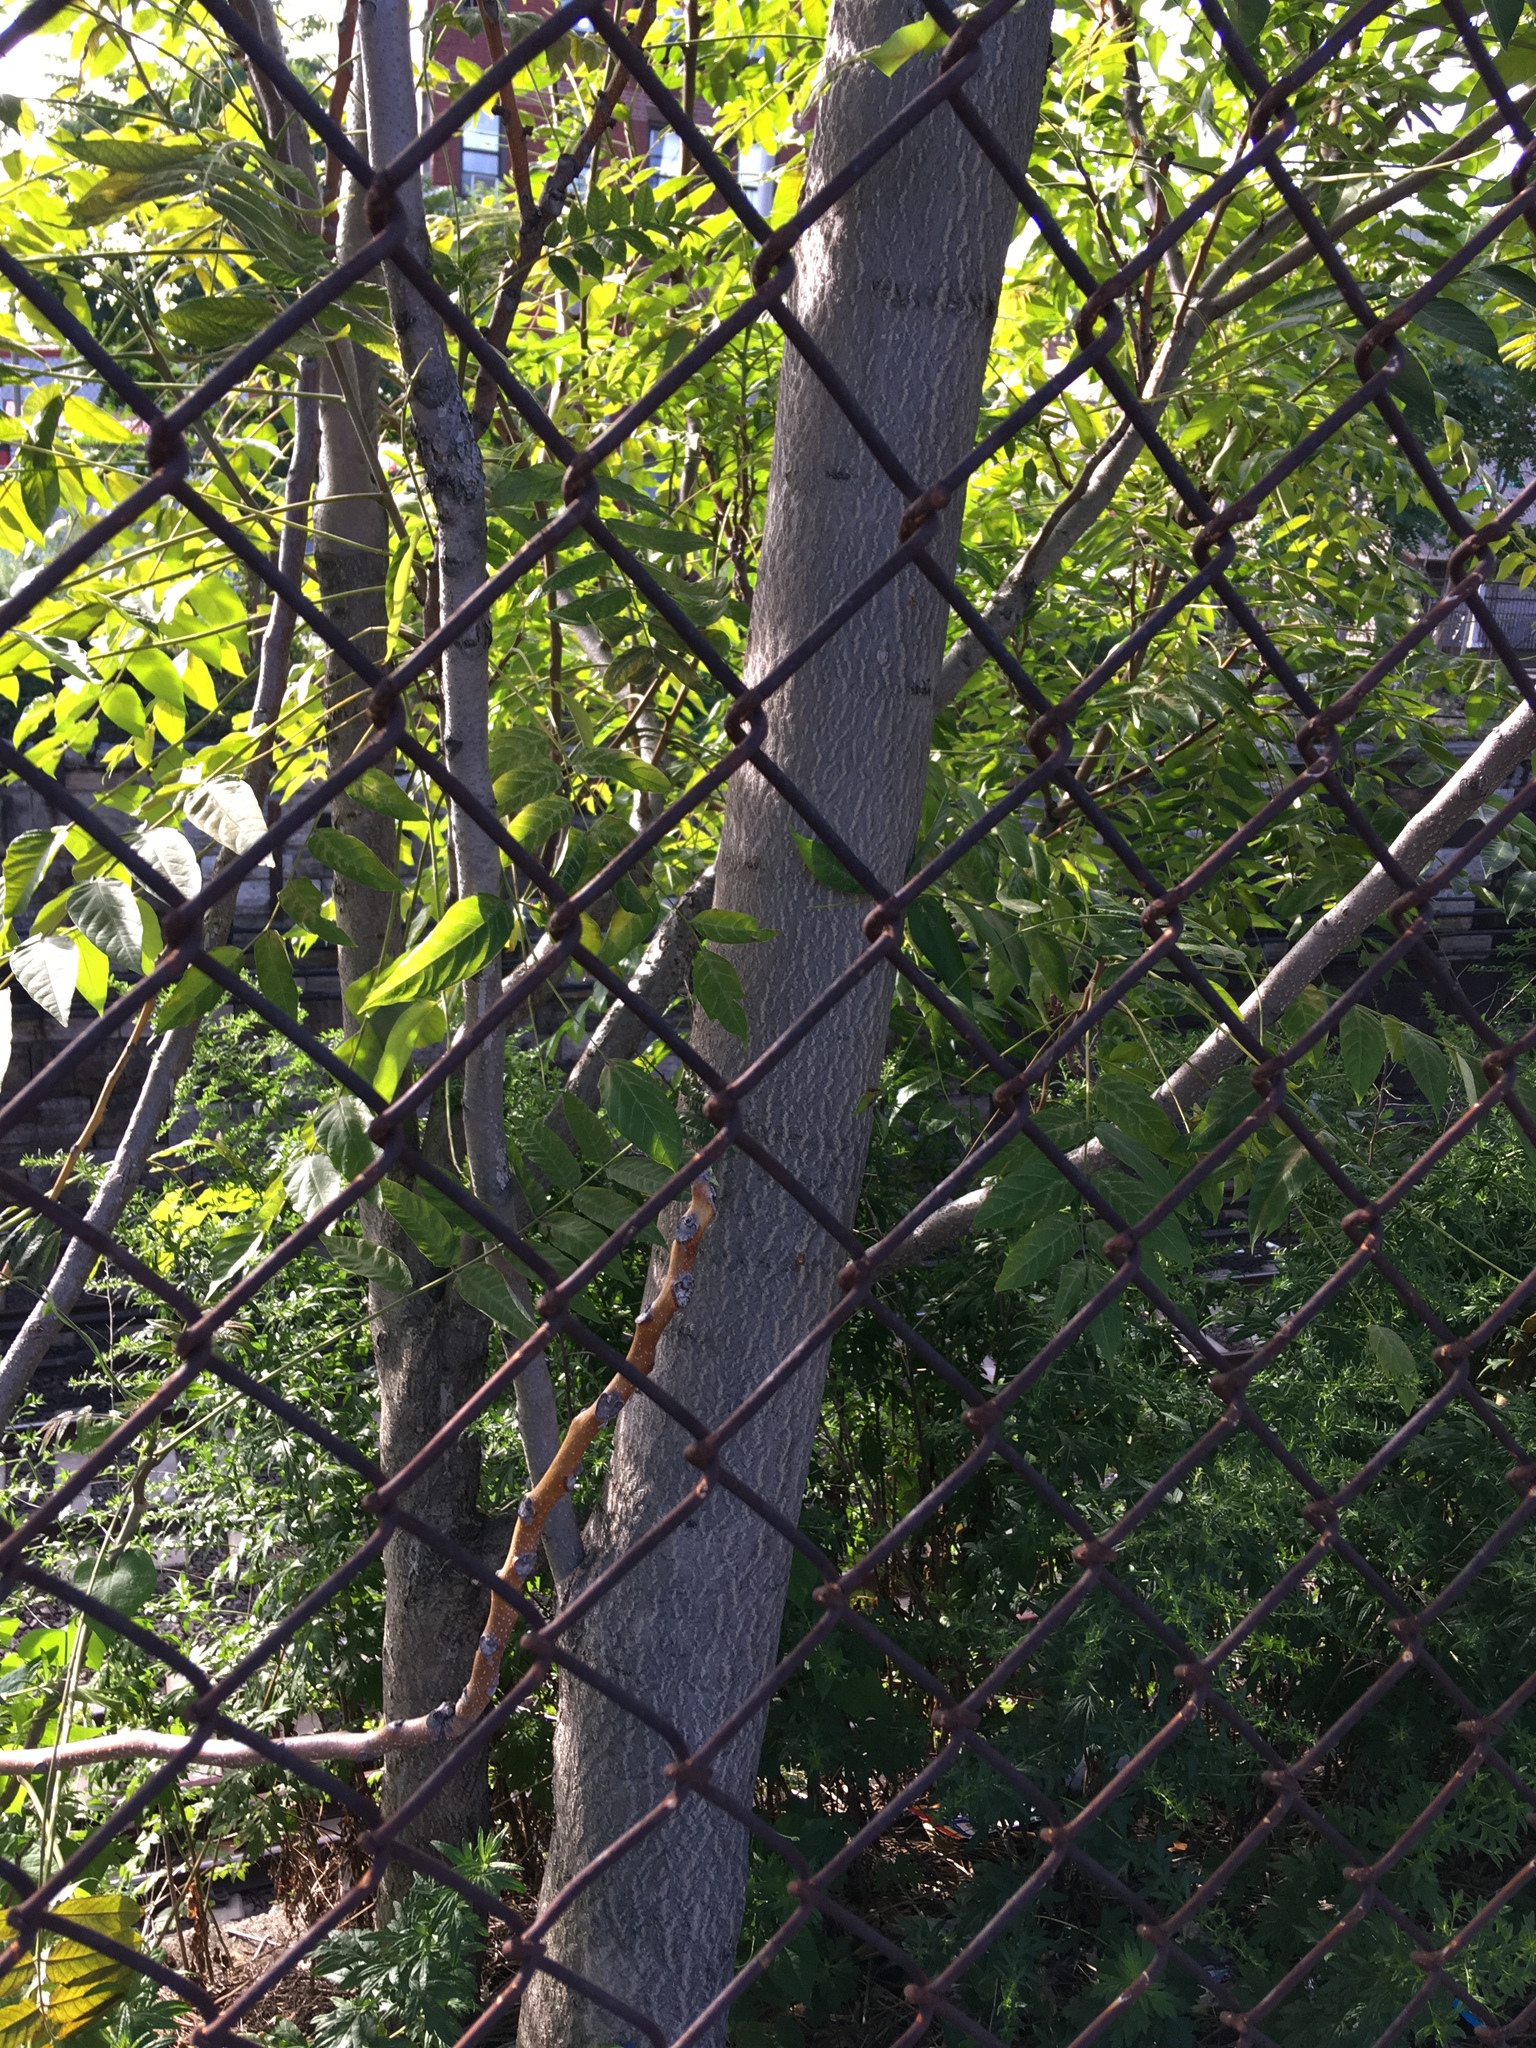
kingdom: Plantae
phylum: Tracheophyta
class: Magnoliopsida
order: Sapindales
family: Simaroubaceae
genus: Ailanthus
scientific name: Ailanthus altissima
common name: Tree-of-heaven
